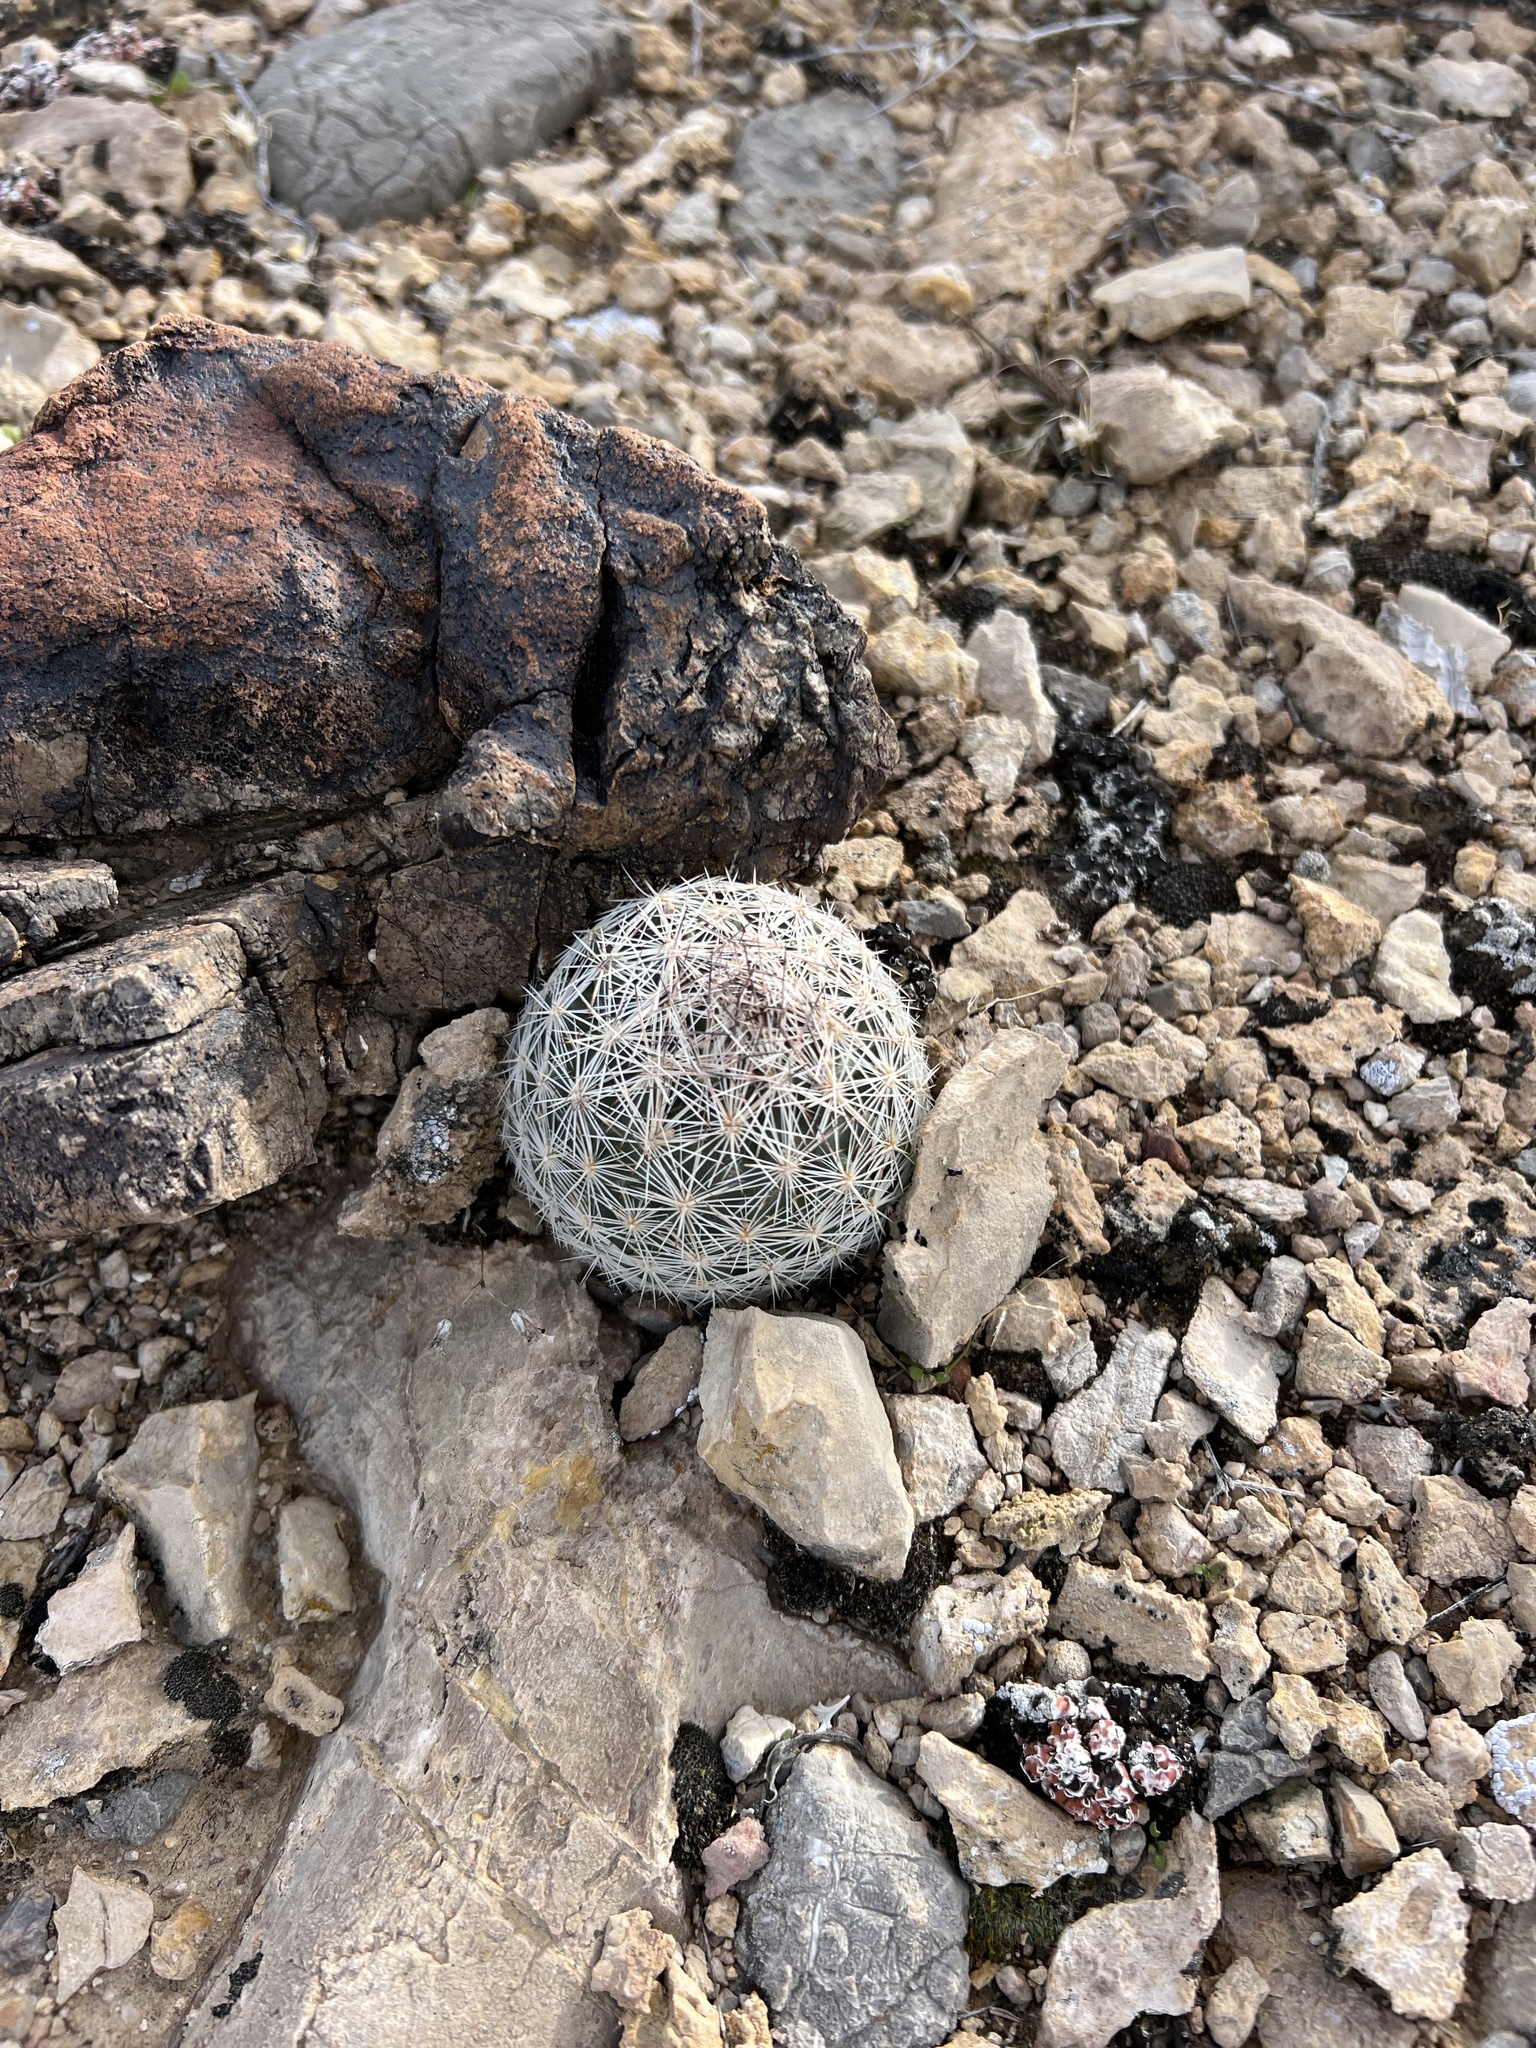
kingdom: Plantae
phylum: Tracheophyta
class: Magnoliopsida
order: Caryophyllales
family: Cactaceae
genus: Pelecyphora
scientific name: Pelecyphora dasyacantha
